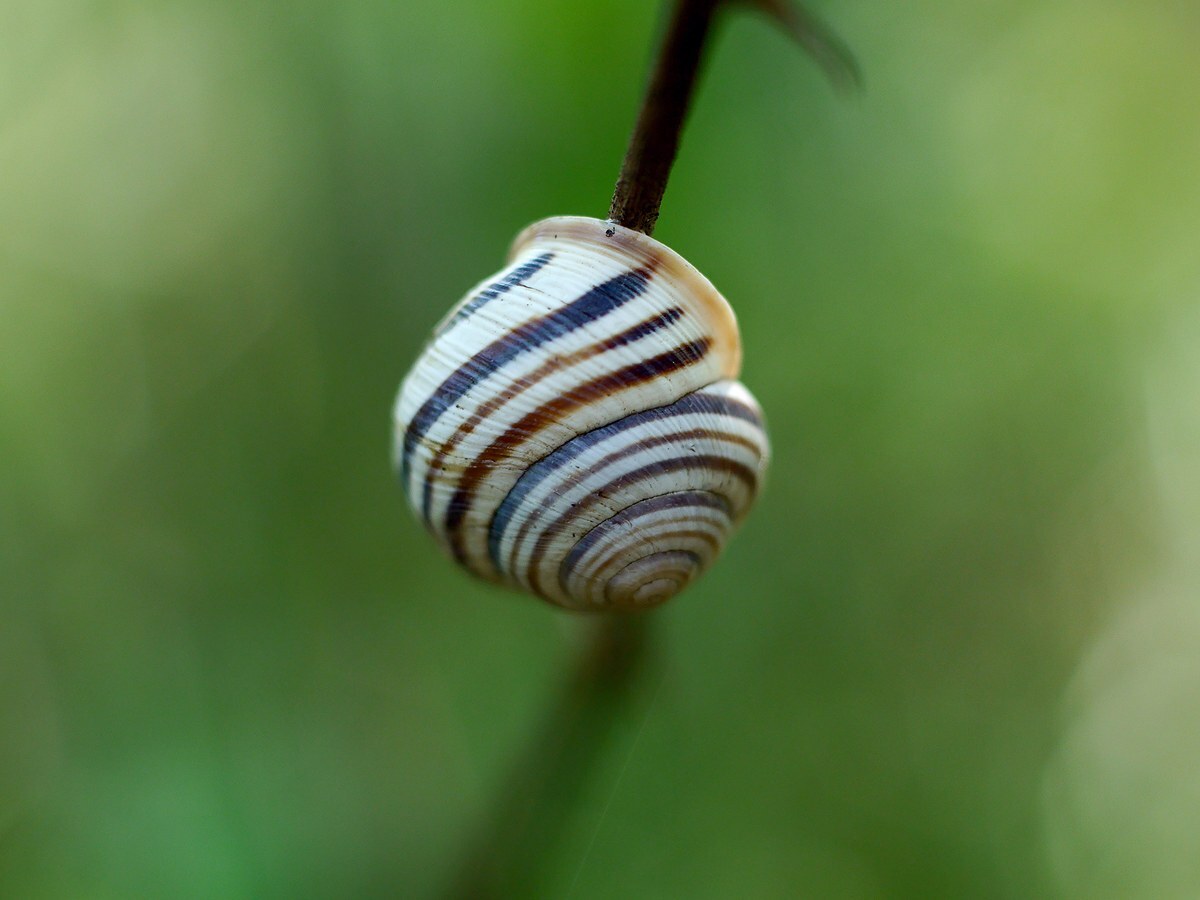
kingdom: Animalia
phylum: Mollusca
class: Gastropoda
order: Stylommatophora
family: Helicidae
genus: Caucasotachea
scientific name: Caucasotachea vindobonensis
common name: European helicid land snail
